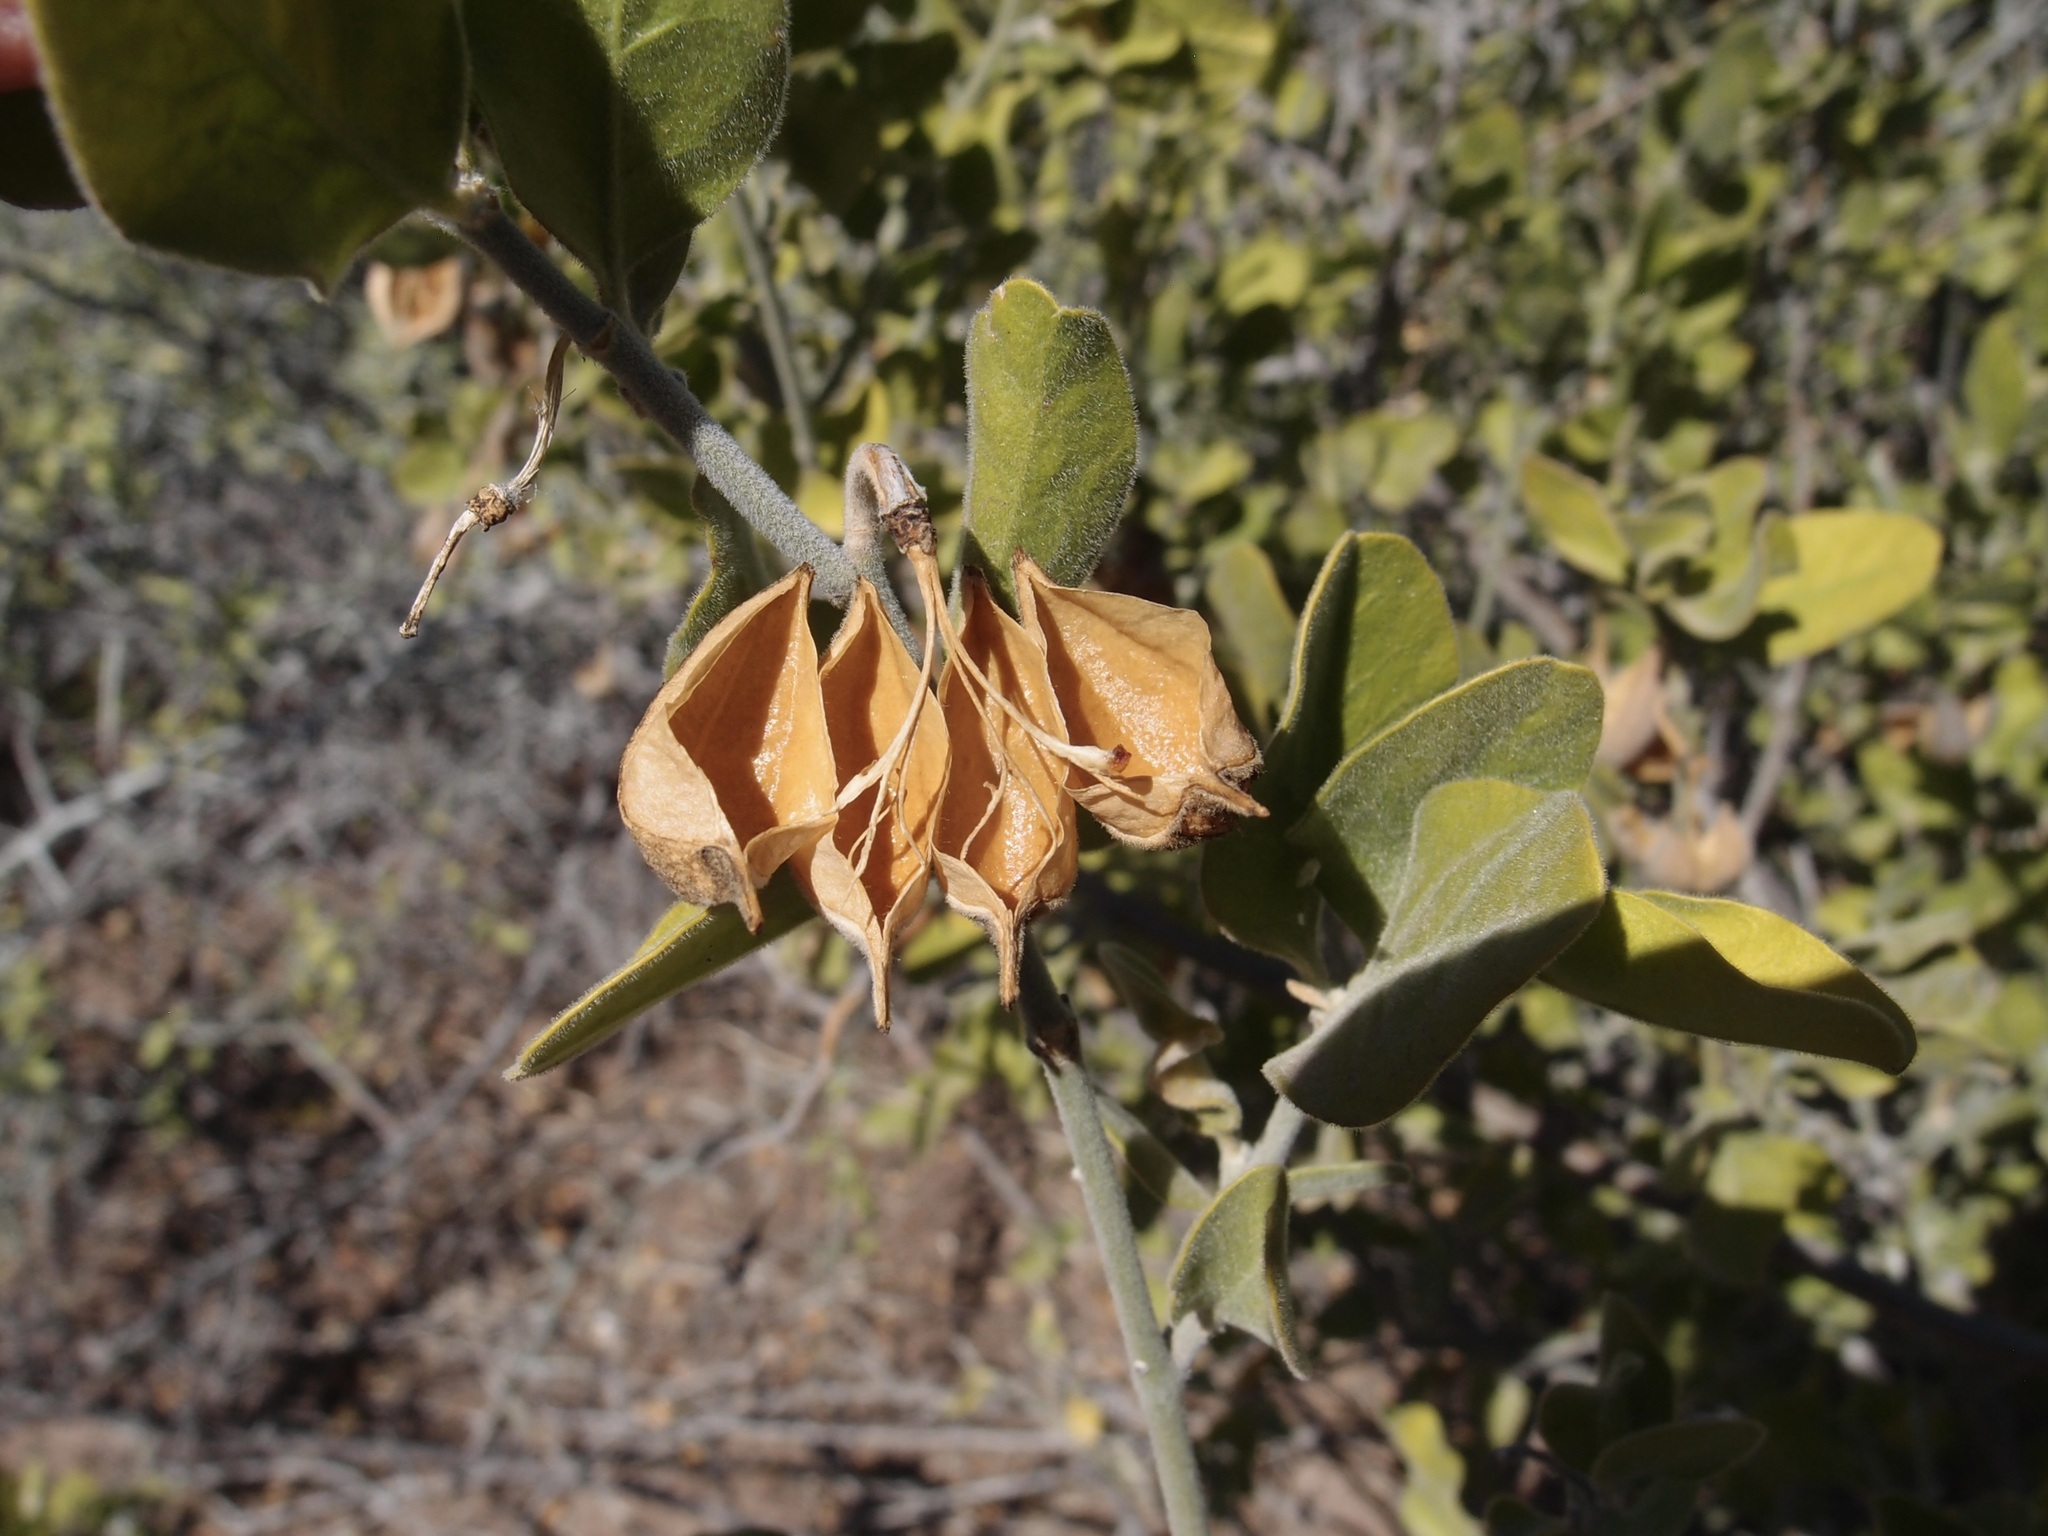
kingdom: Plantae
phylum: Tracheophyta
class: Magnoliopsida
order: Zygophyllales
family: Zygophyllaceae
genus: Viscainoa
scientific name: Viscainoa geniculata
